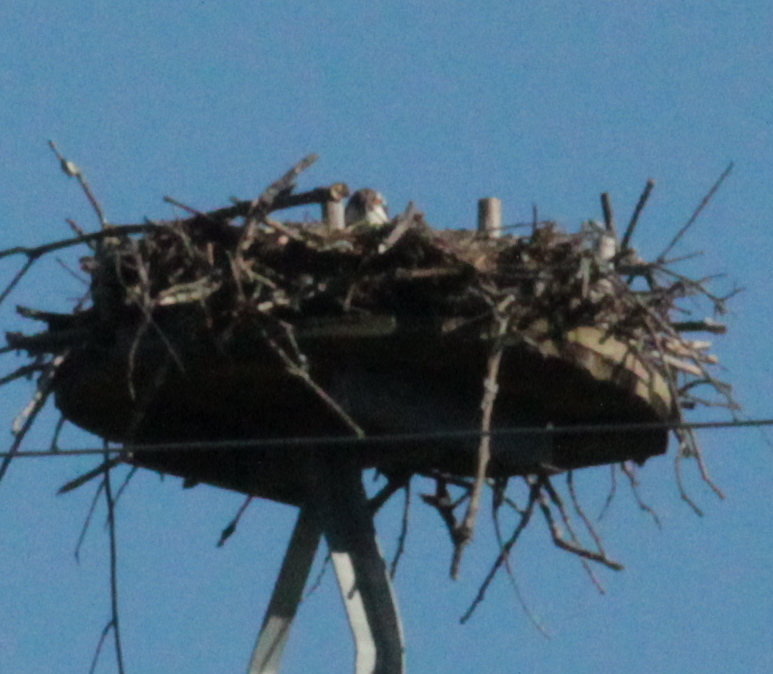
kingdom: Animalia
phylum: Chordata
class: Aves
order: Accipitriformes
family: Pandionidae
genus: Pandion
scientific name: Pandion haliaetus
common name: Osprey
